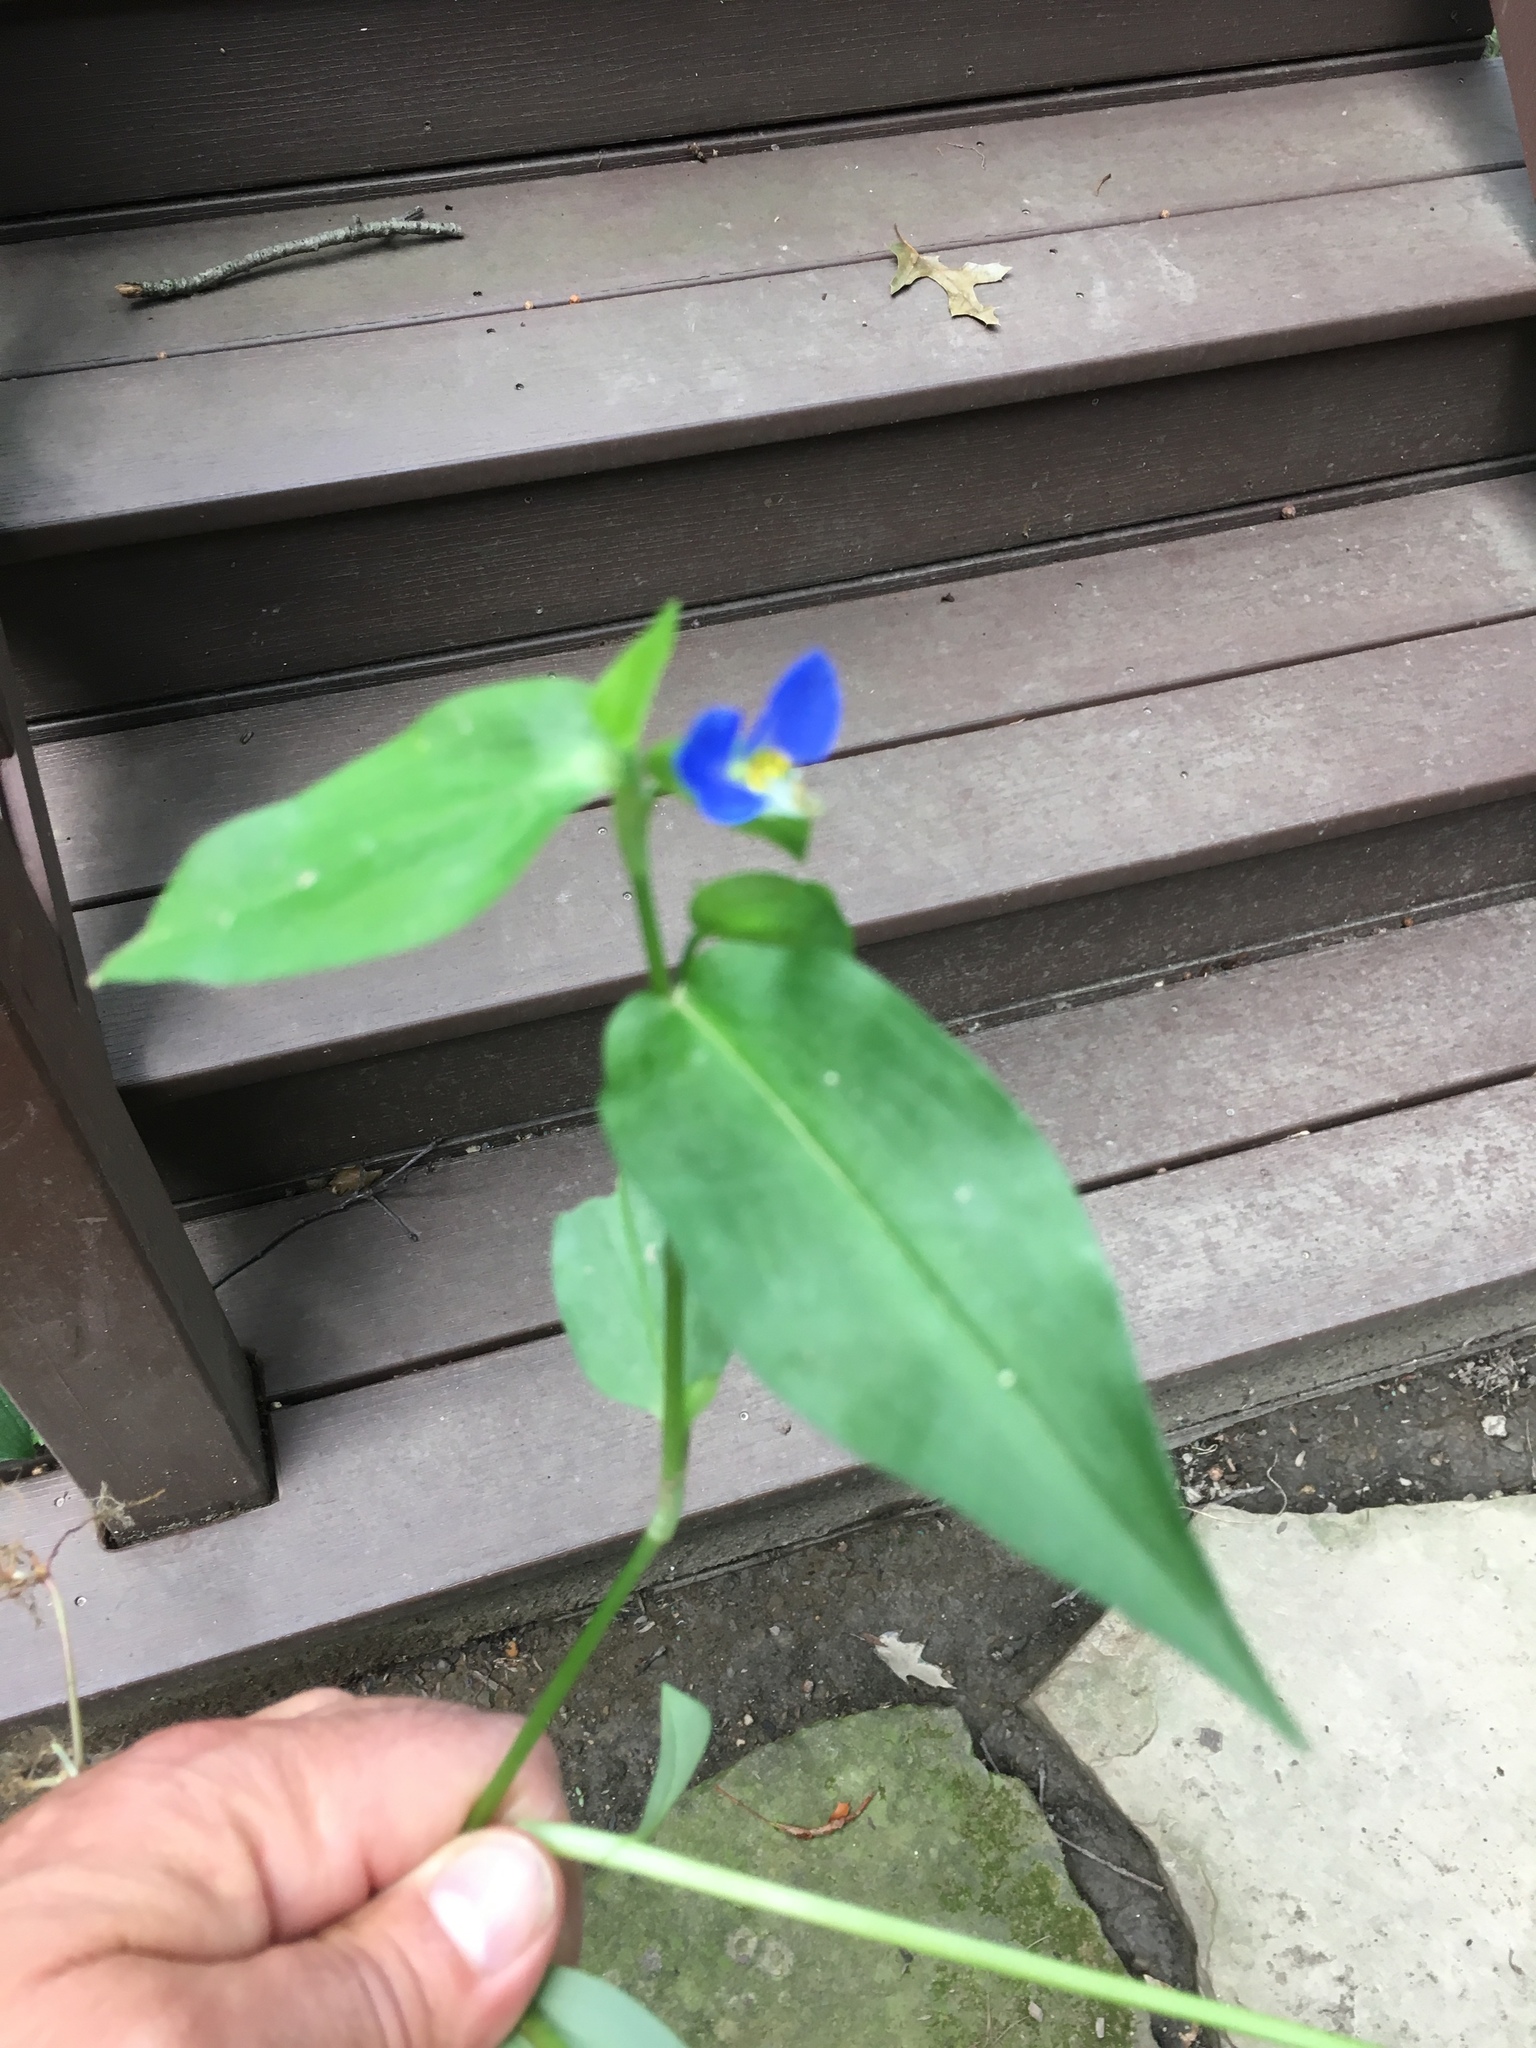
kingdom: Plantae
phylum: Tracheophyta
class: Liliopsida
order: Commelinales
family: Commelinaceae
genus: Commelina
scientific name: Commelina communis
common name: Asiatic dayflower
